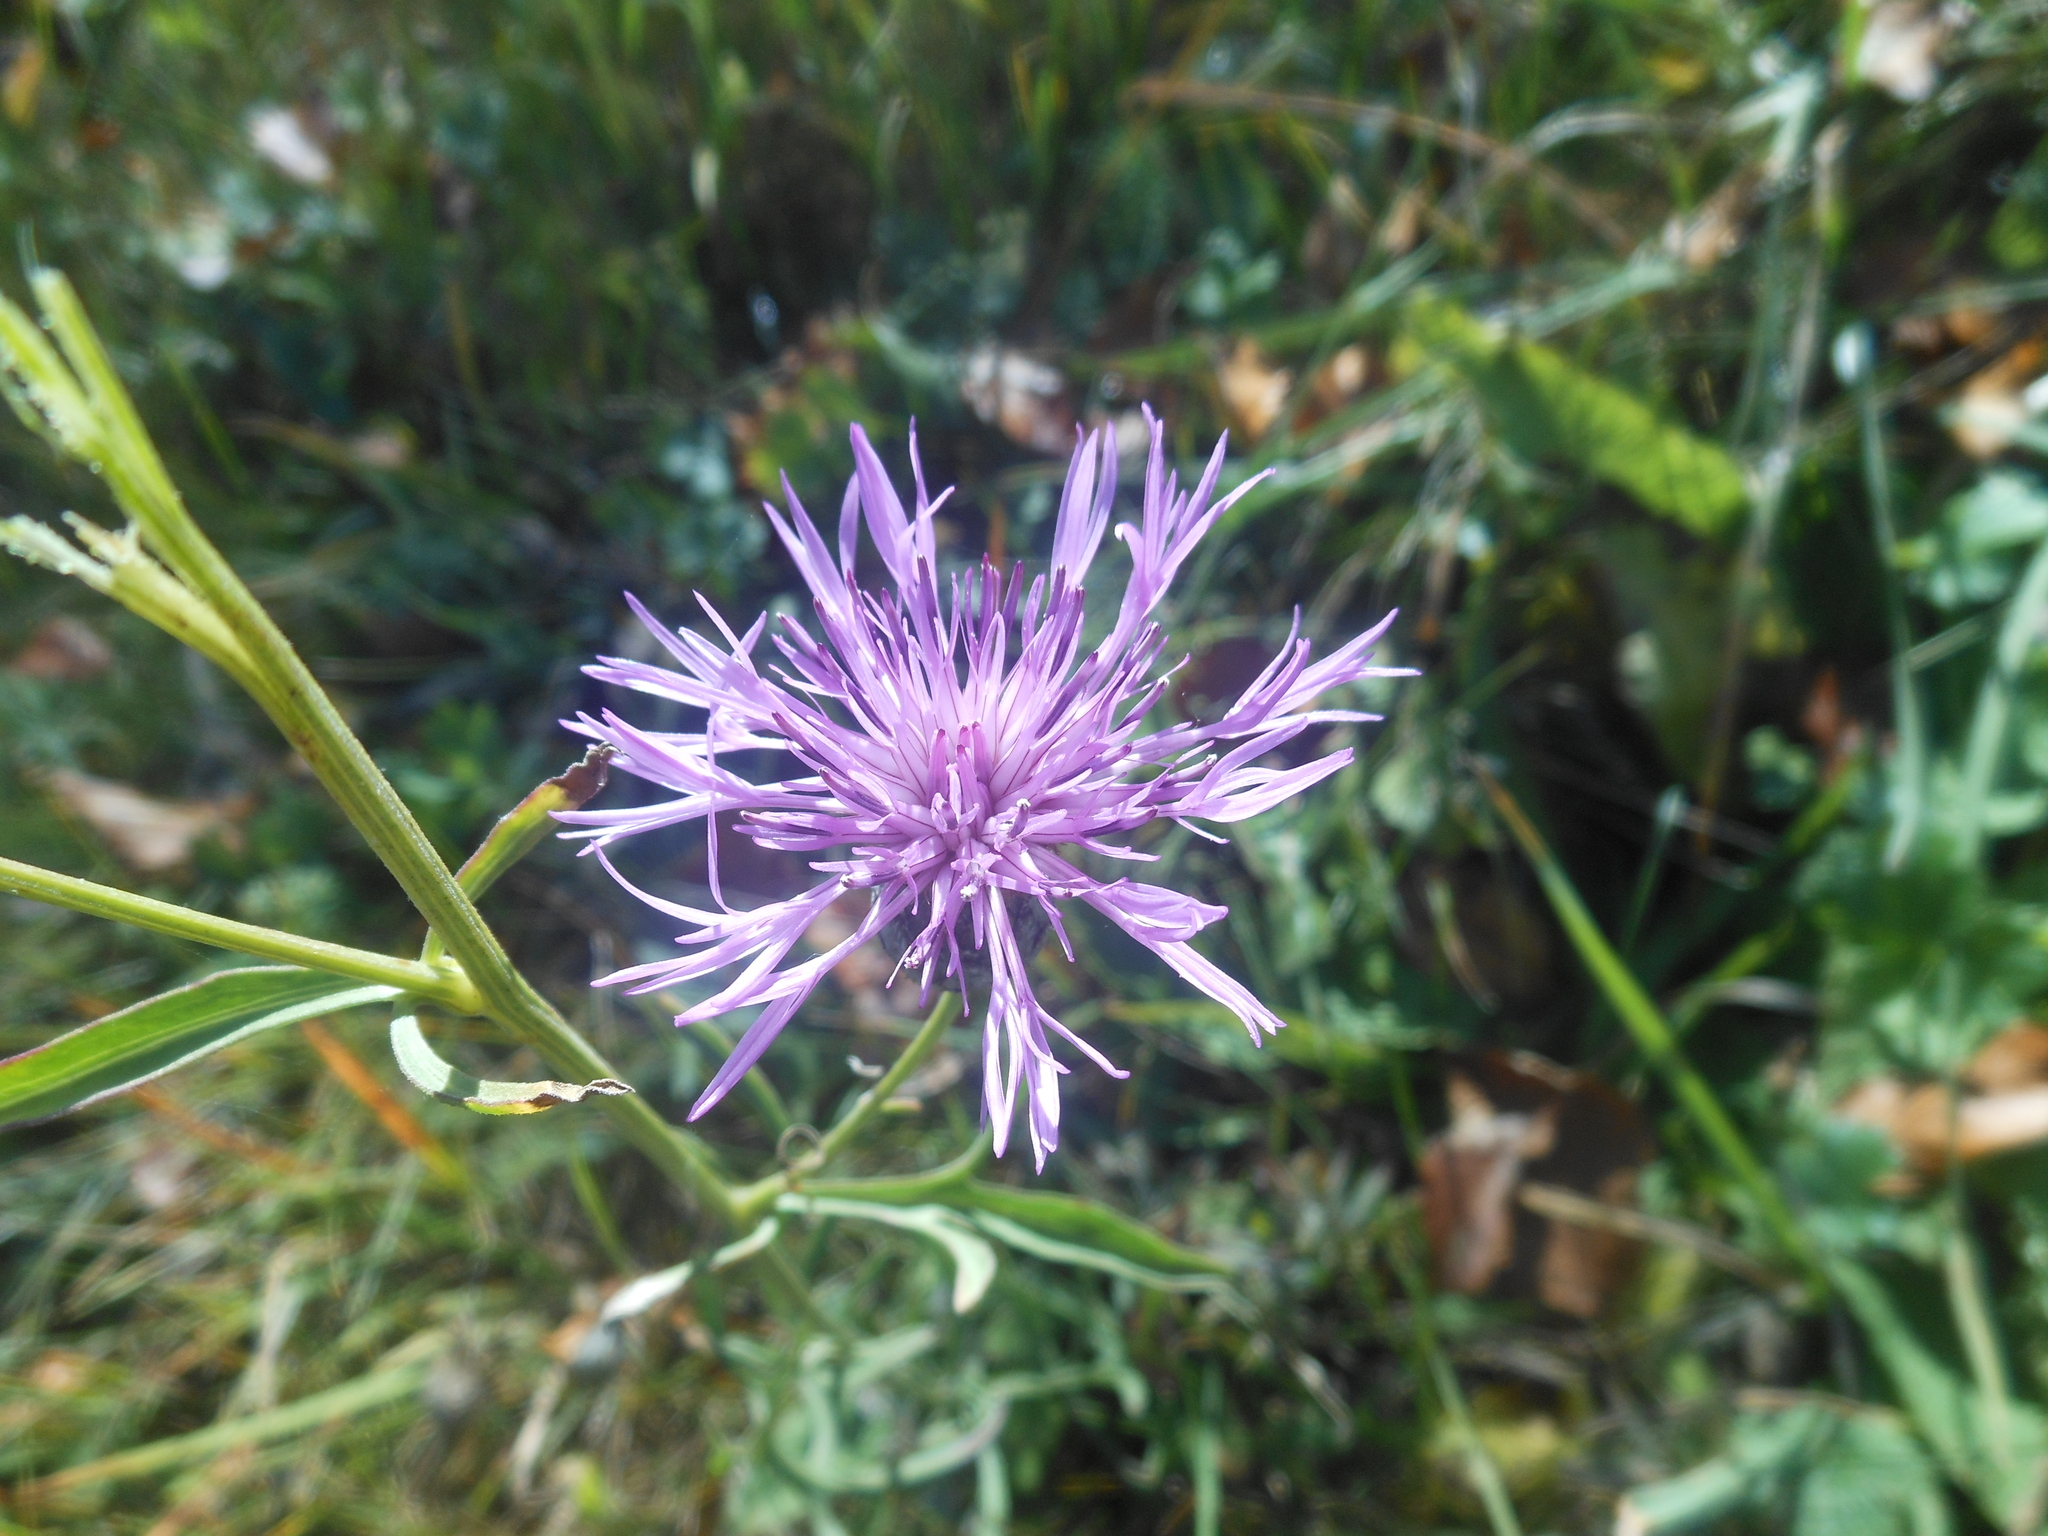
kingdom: Plantae
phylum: Tracheophyta
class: Magnoliopsida
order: Asterales
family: Asteraceae
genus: Centaurea
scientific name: Centaurea scabiosa
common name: Greater knapweed
